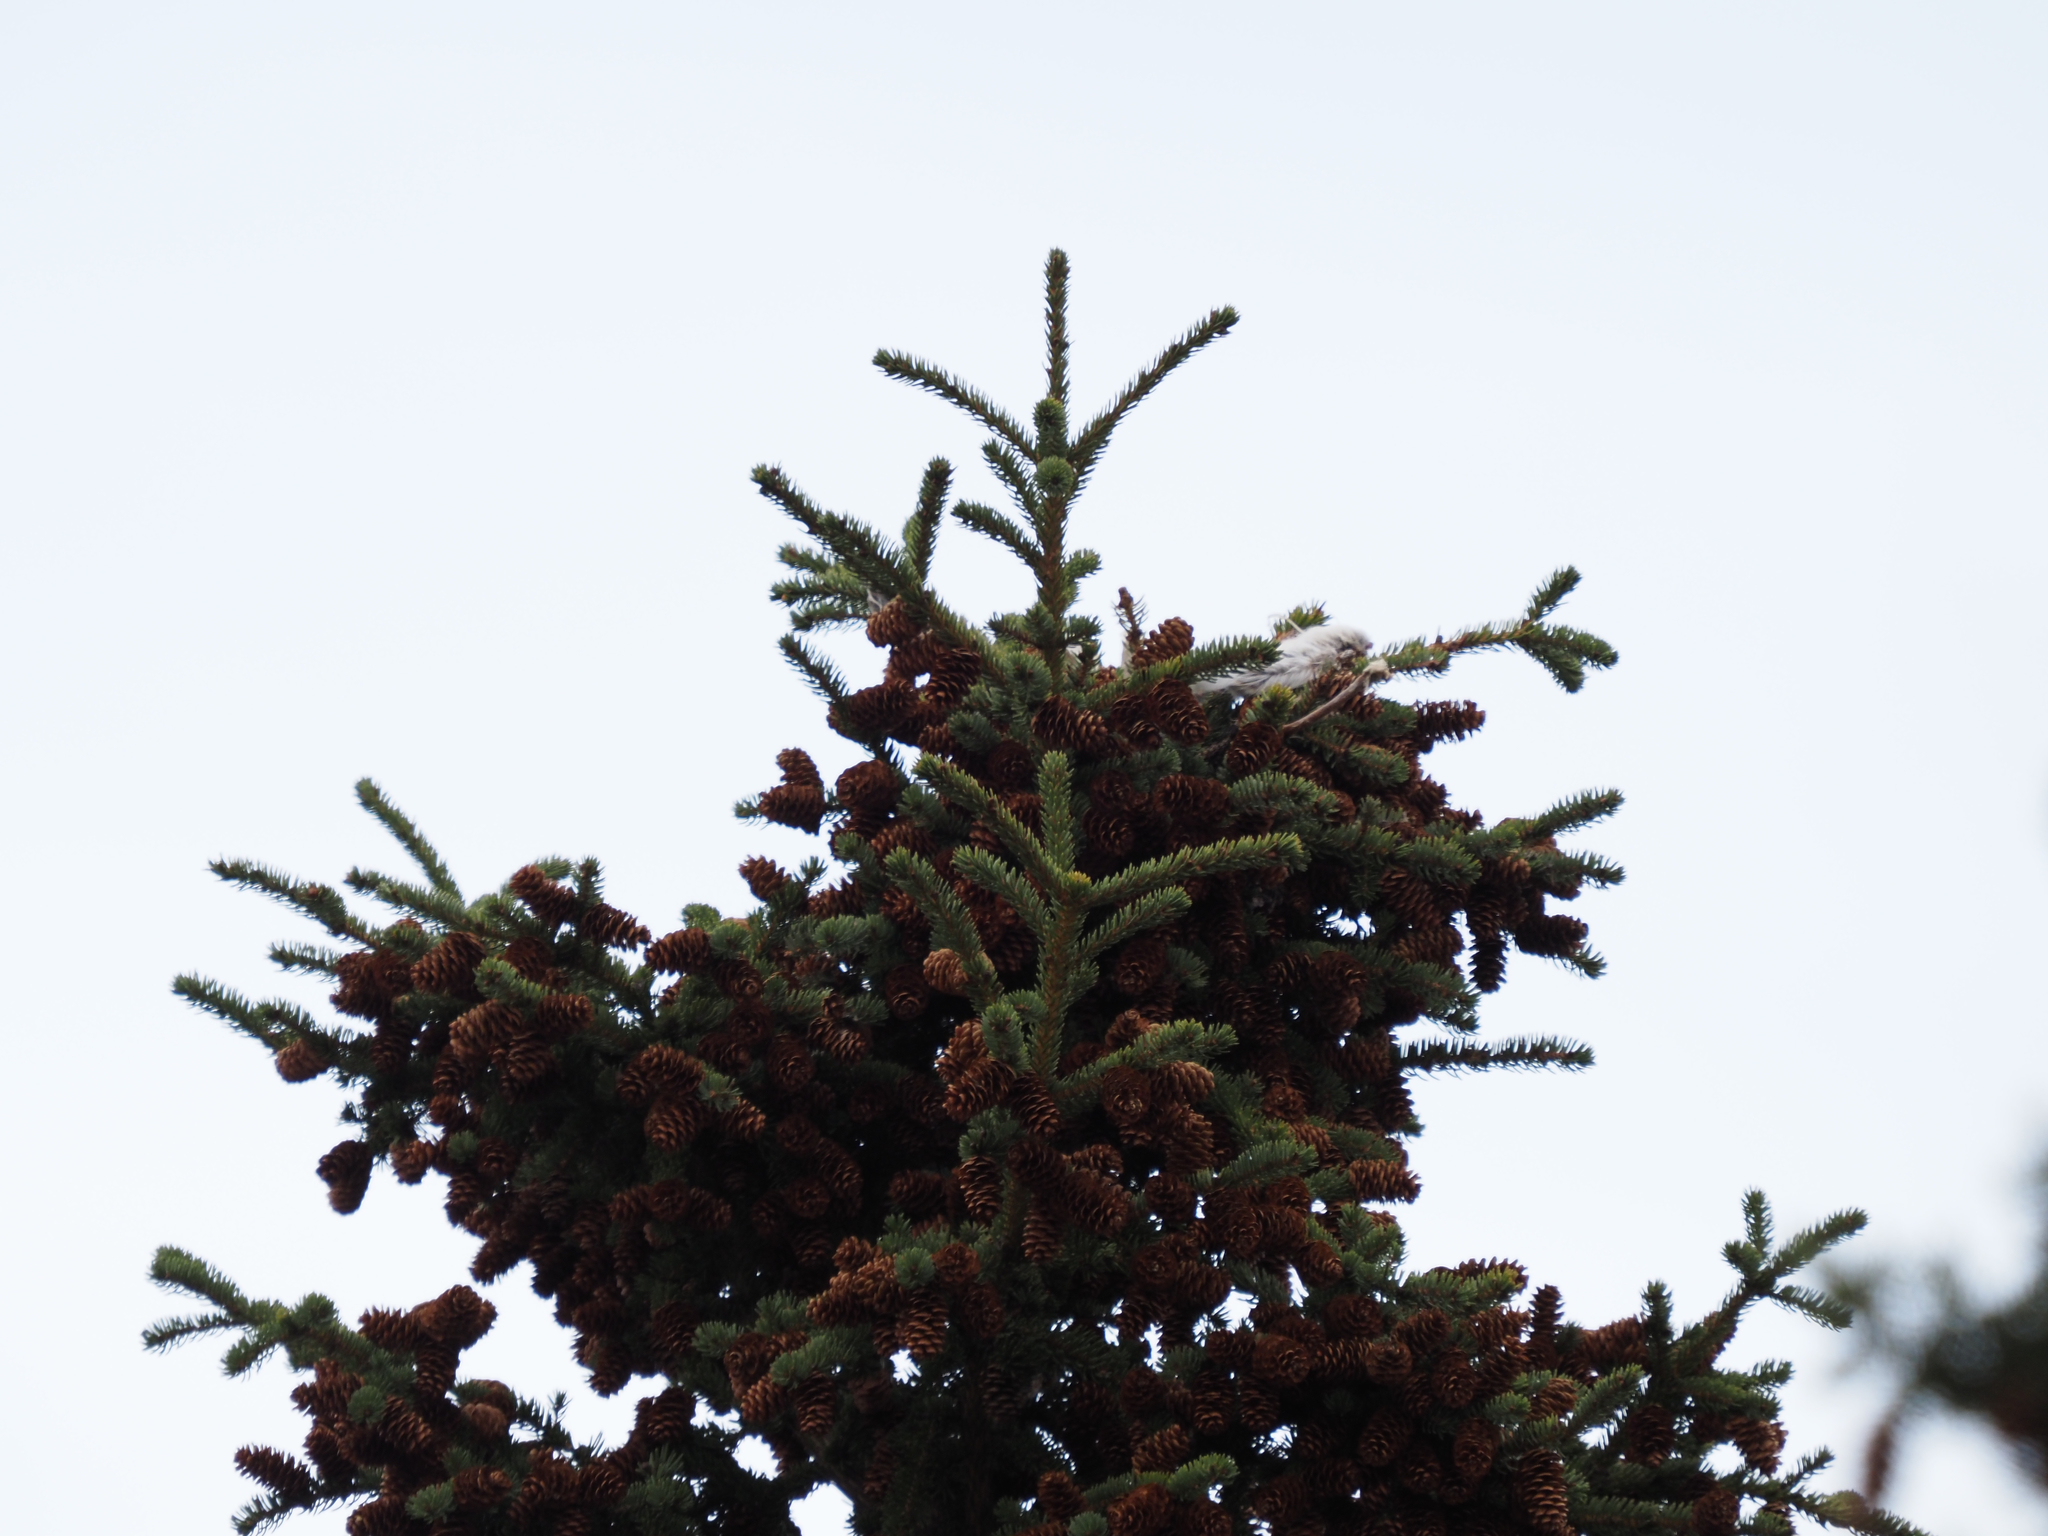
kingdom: Animalia
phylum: Chordata
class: Mammalia
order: Lagomorpha
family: Leporidae
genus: Lepus
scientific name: Lepus americanus
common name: Snowshoe hare
